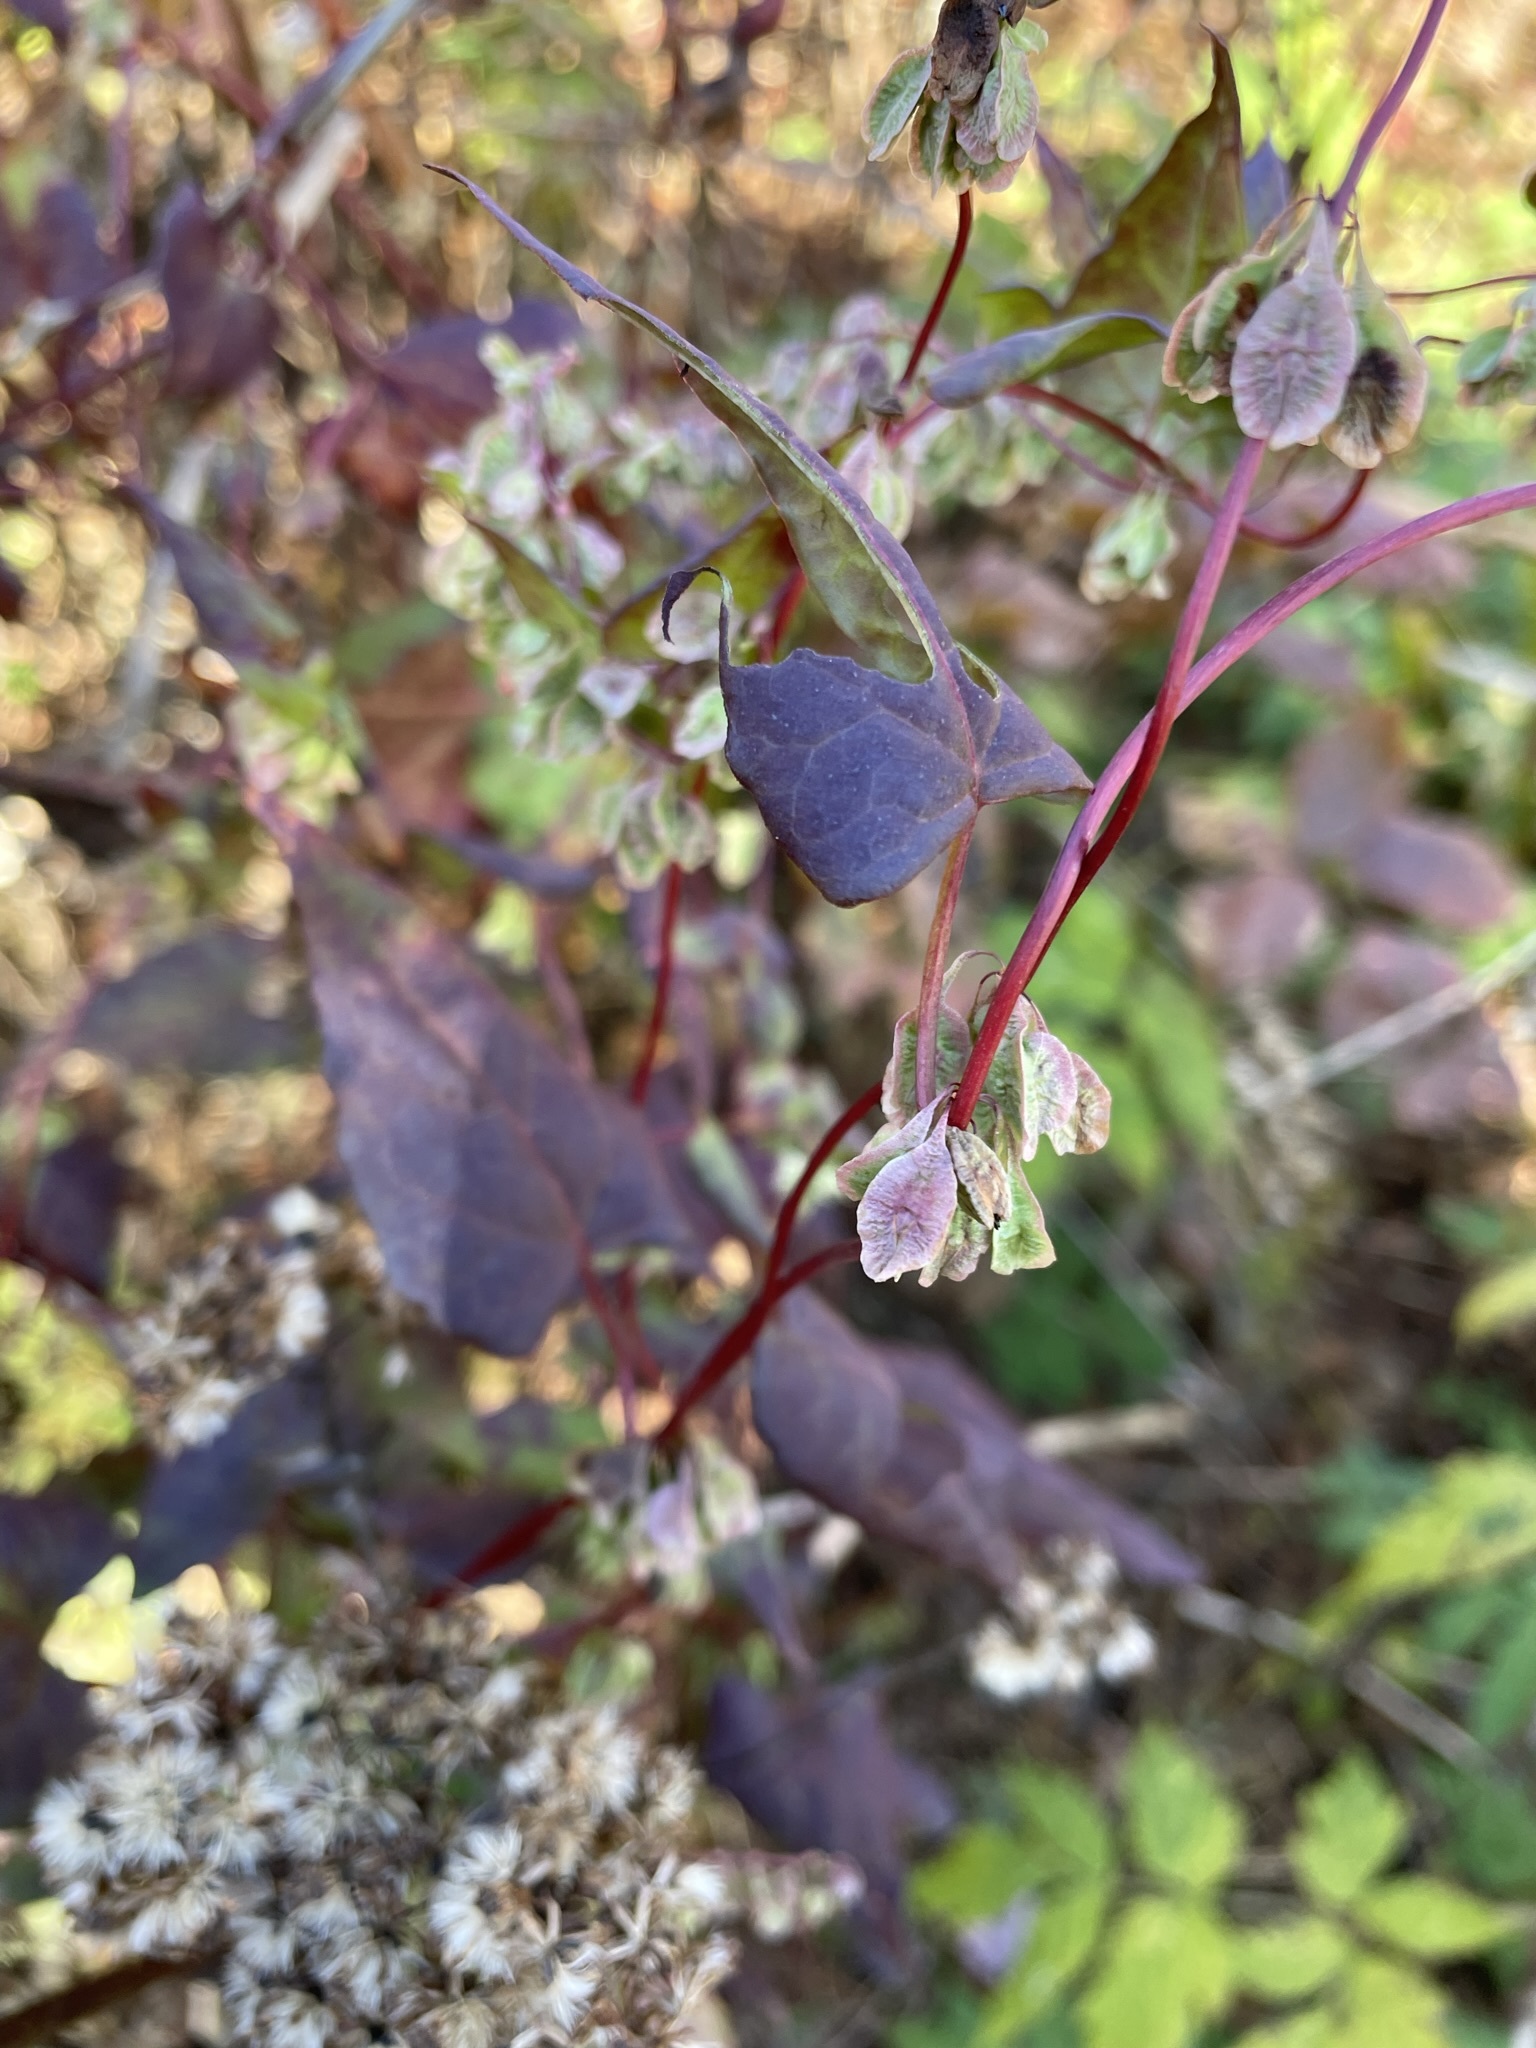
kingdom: Plantae
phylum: Tracheophyta
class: Magnoliopsida
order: Caryophyllales
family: Polygonaceae
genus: Fallopia
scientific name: Fallopia scandens
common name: Climbing false buckwheat
